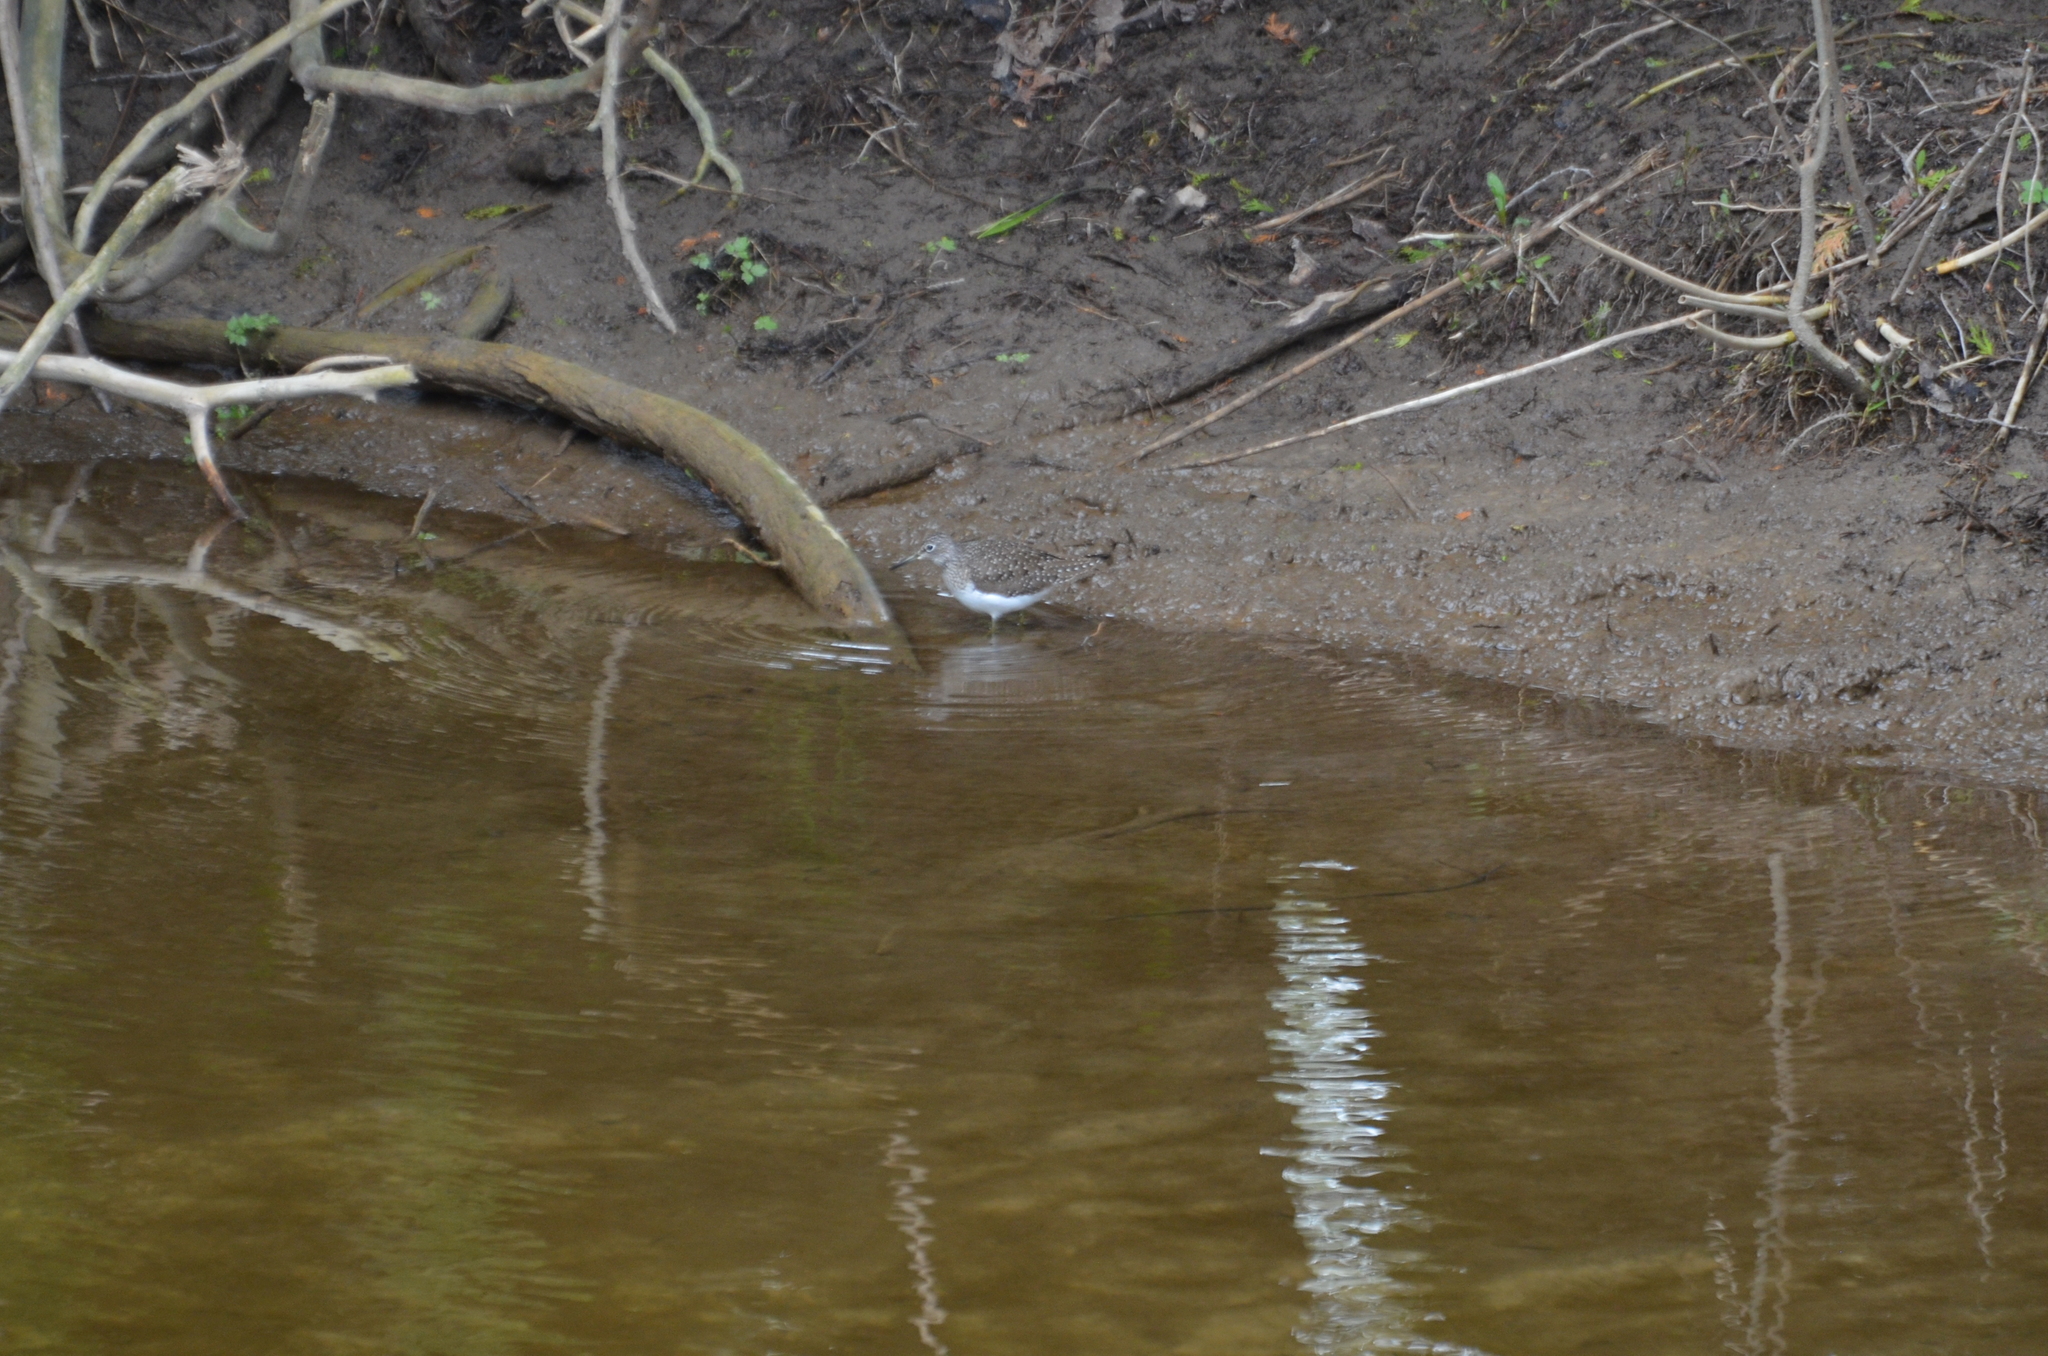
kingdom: Animalia
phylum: Chordata
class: Aves
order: Charadriiformes
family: Scolopacidae
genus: Tringa
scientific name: Tringa solitaria
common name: Solitary sandpiper
